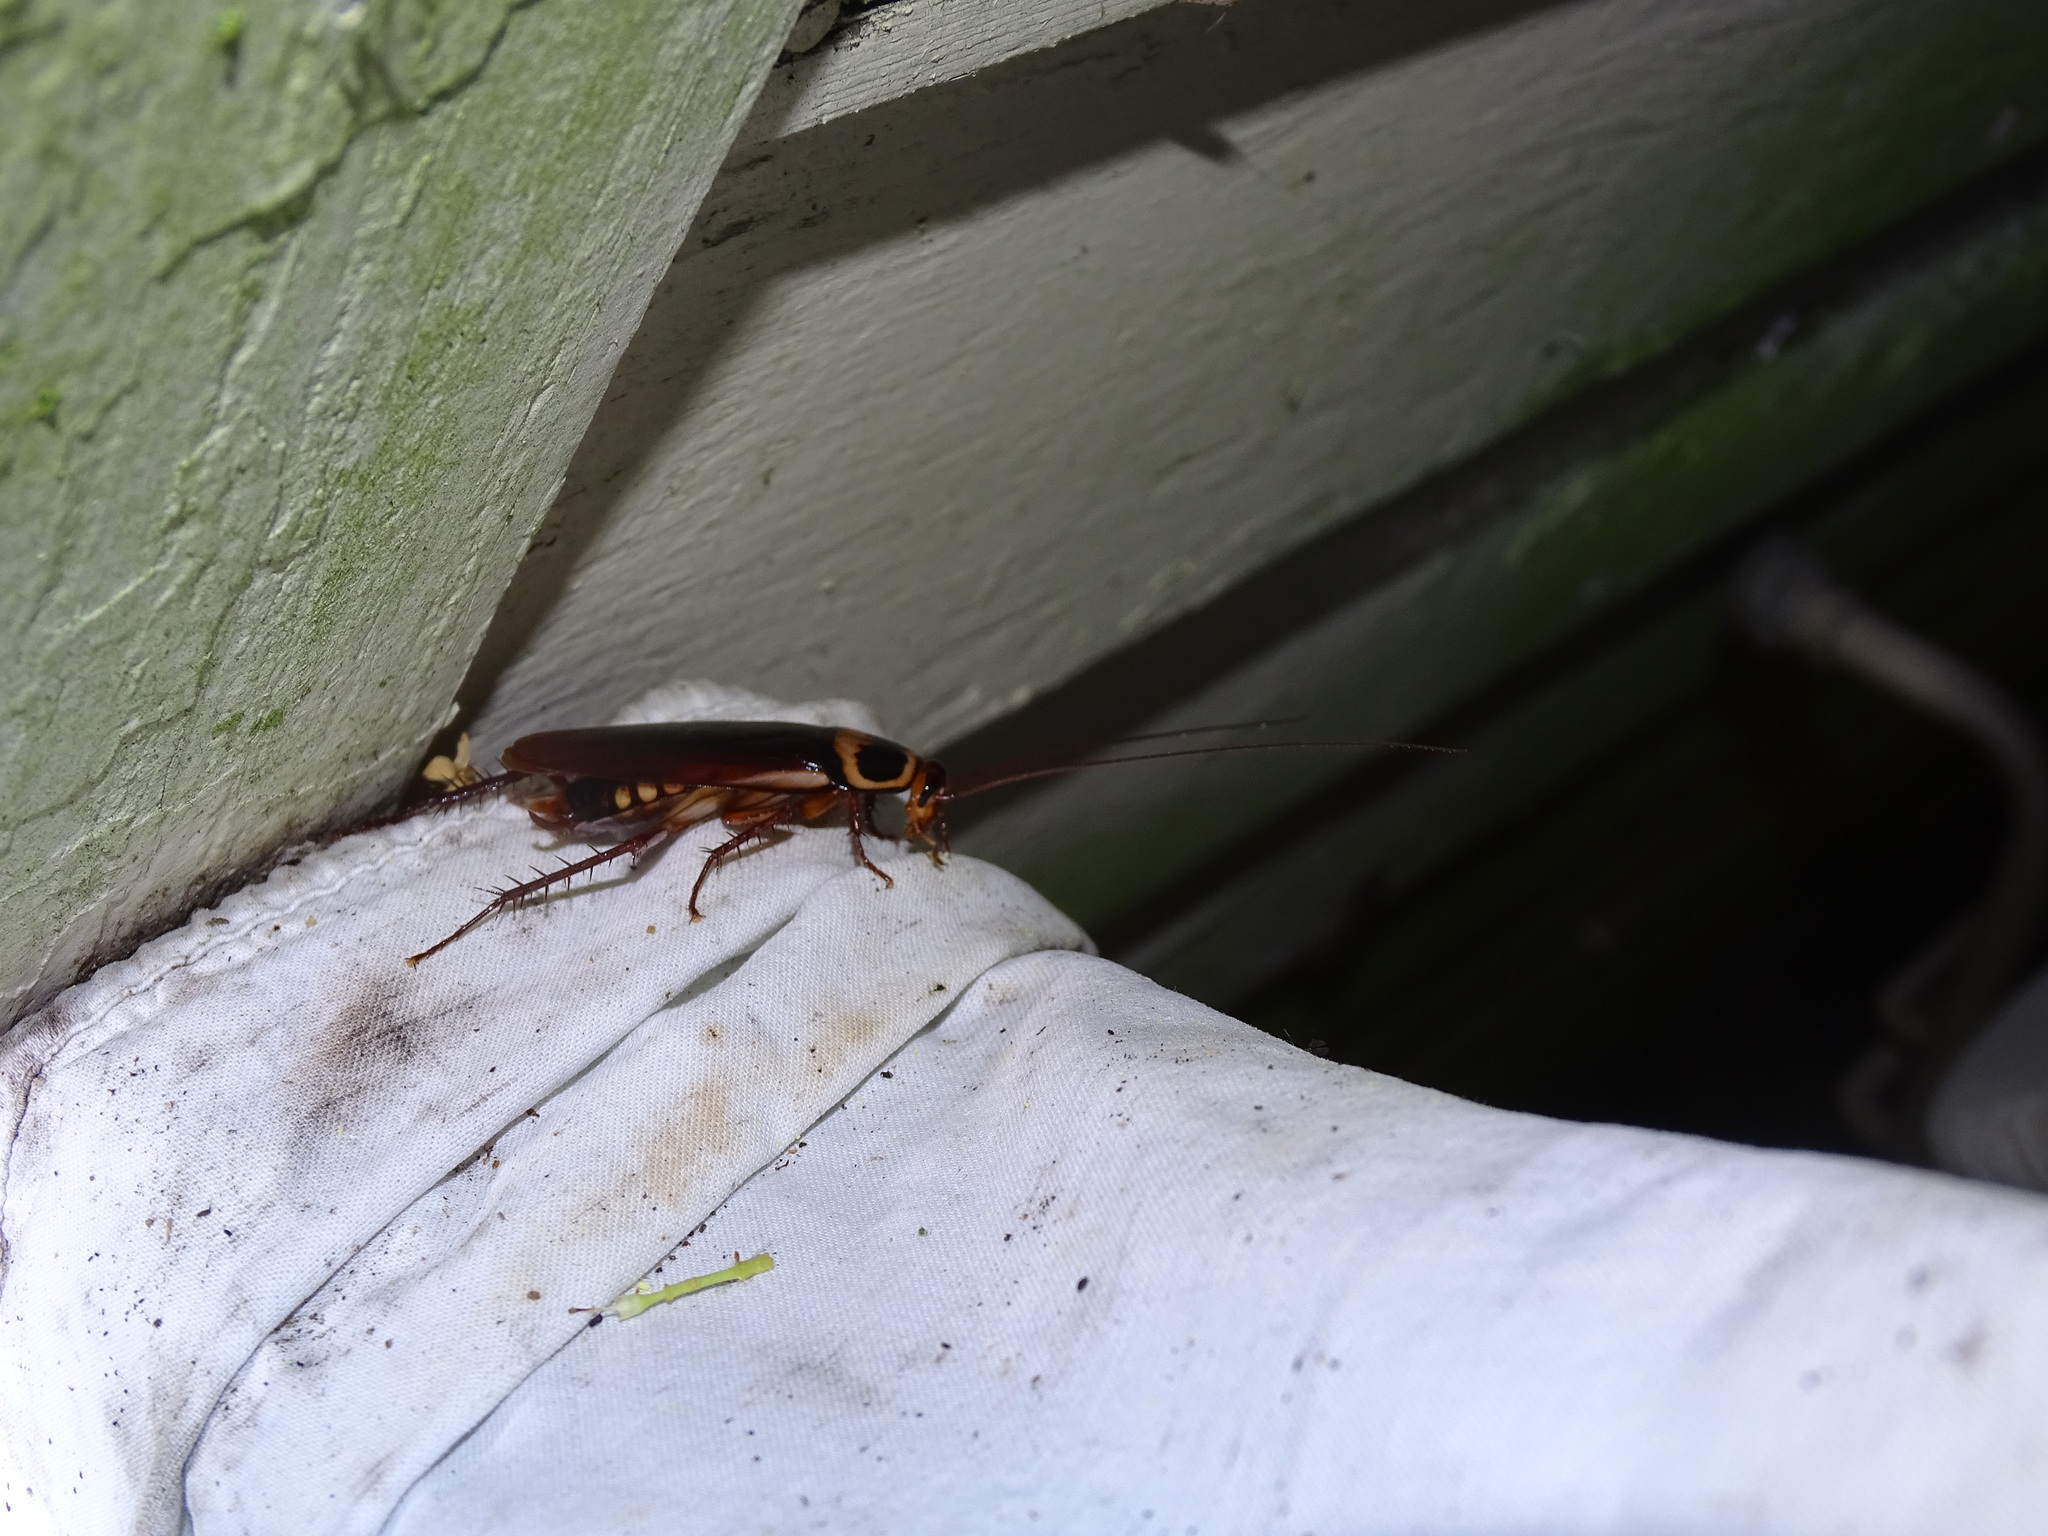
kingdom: Animalia
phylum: Arthropoda
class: Insecta
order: Blattodea
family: Blattidae
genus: Periplaneta
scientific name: Periplaneta australasiae
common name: Australian cockroach
